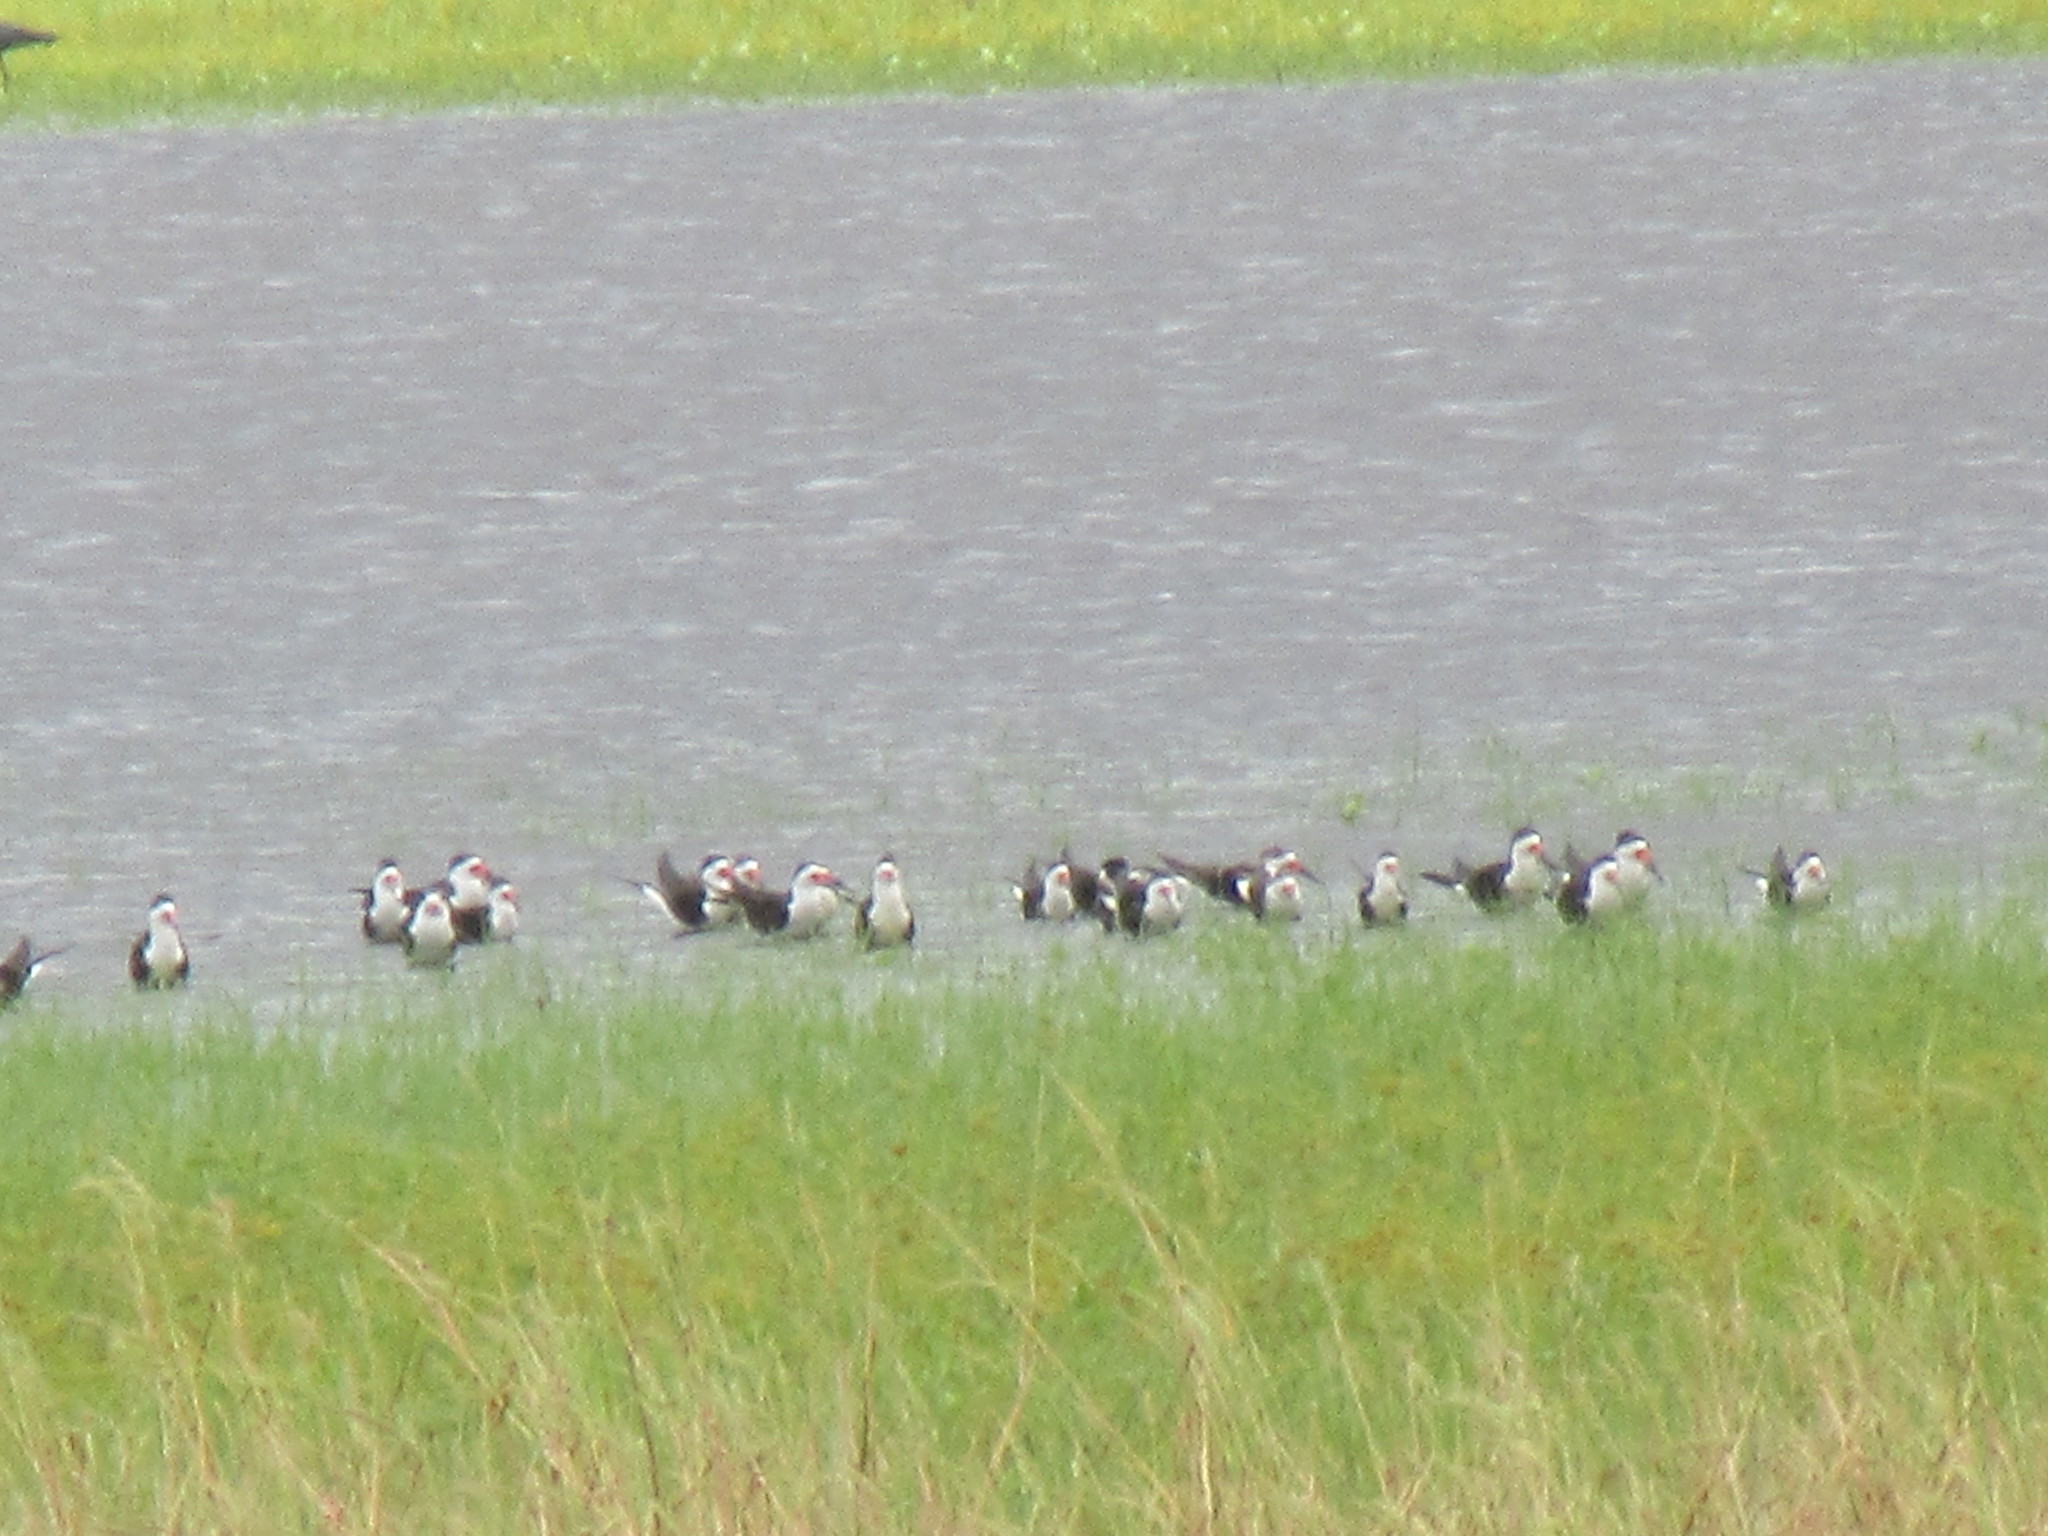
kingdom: Animalia
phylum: Chordata
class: Aves
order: Charadriiformes
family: Laridae
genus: Rynchops
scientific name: Rynchops niger
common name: Black skimmer
